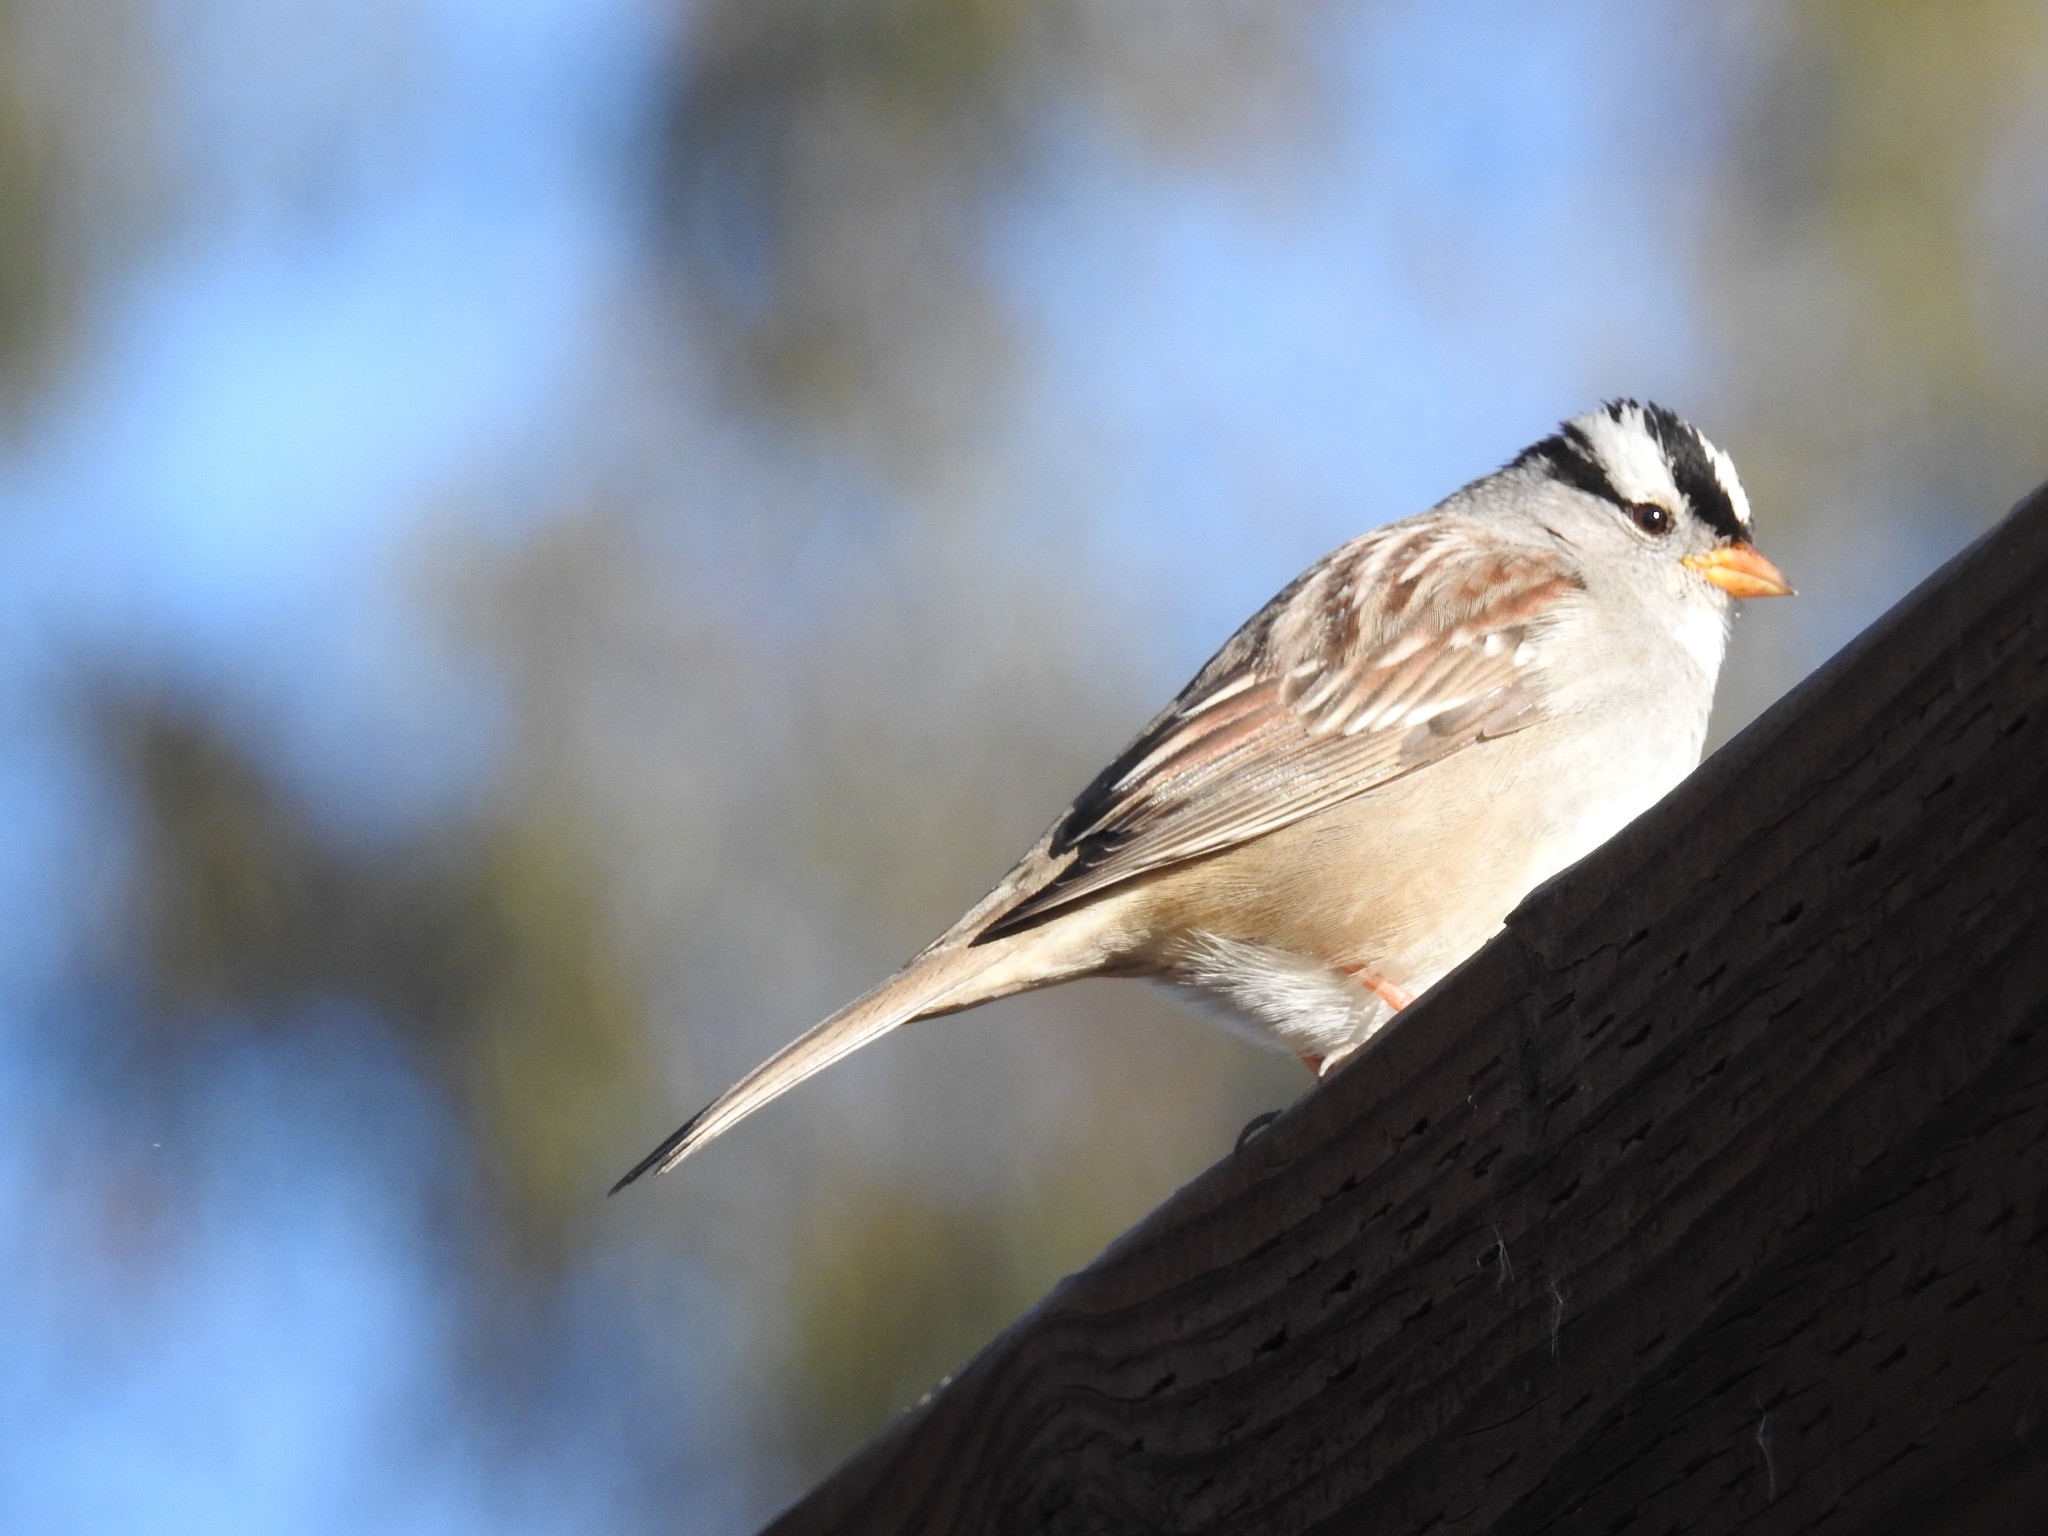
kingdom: Animalia
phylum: Chordata
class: Aves
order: Passeriformes
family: Passerellidae
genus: Zonotrichia
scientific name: Zonotrichia leucophrys
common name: White-crowned sparrow
